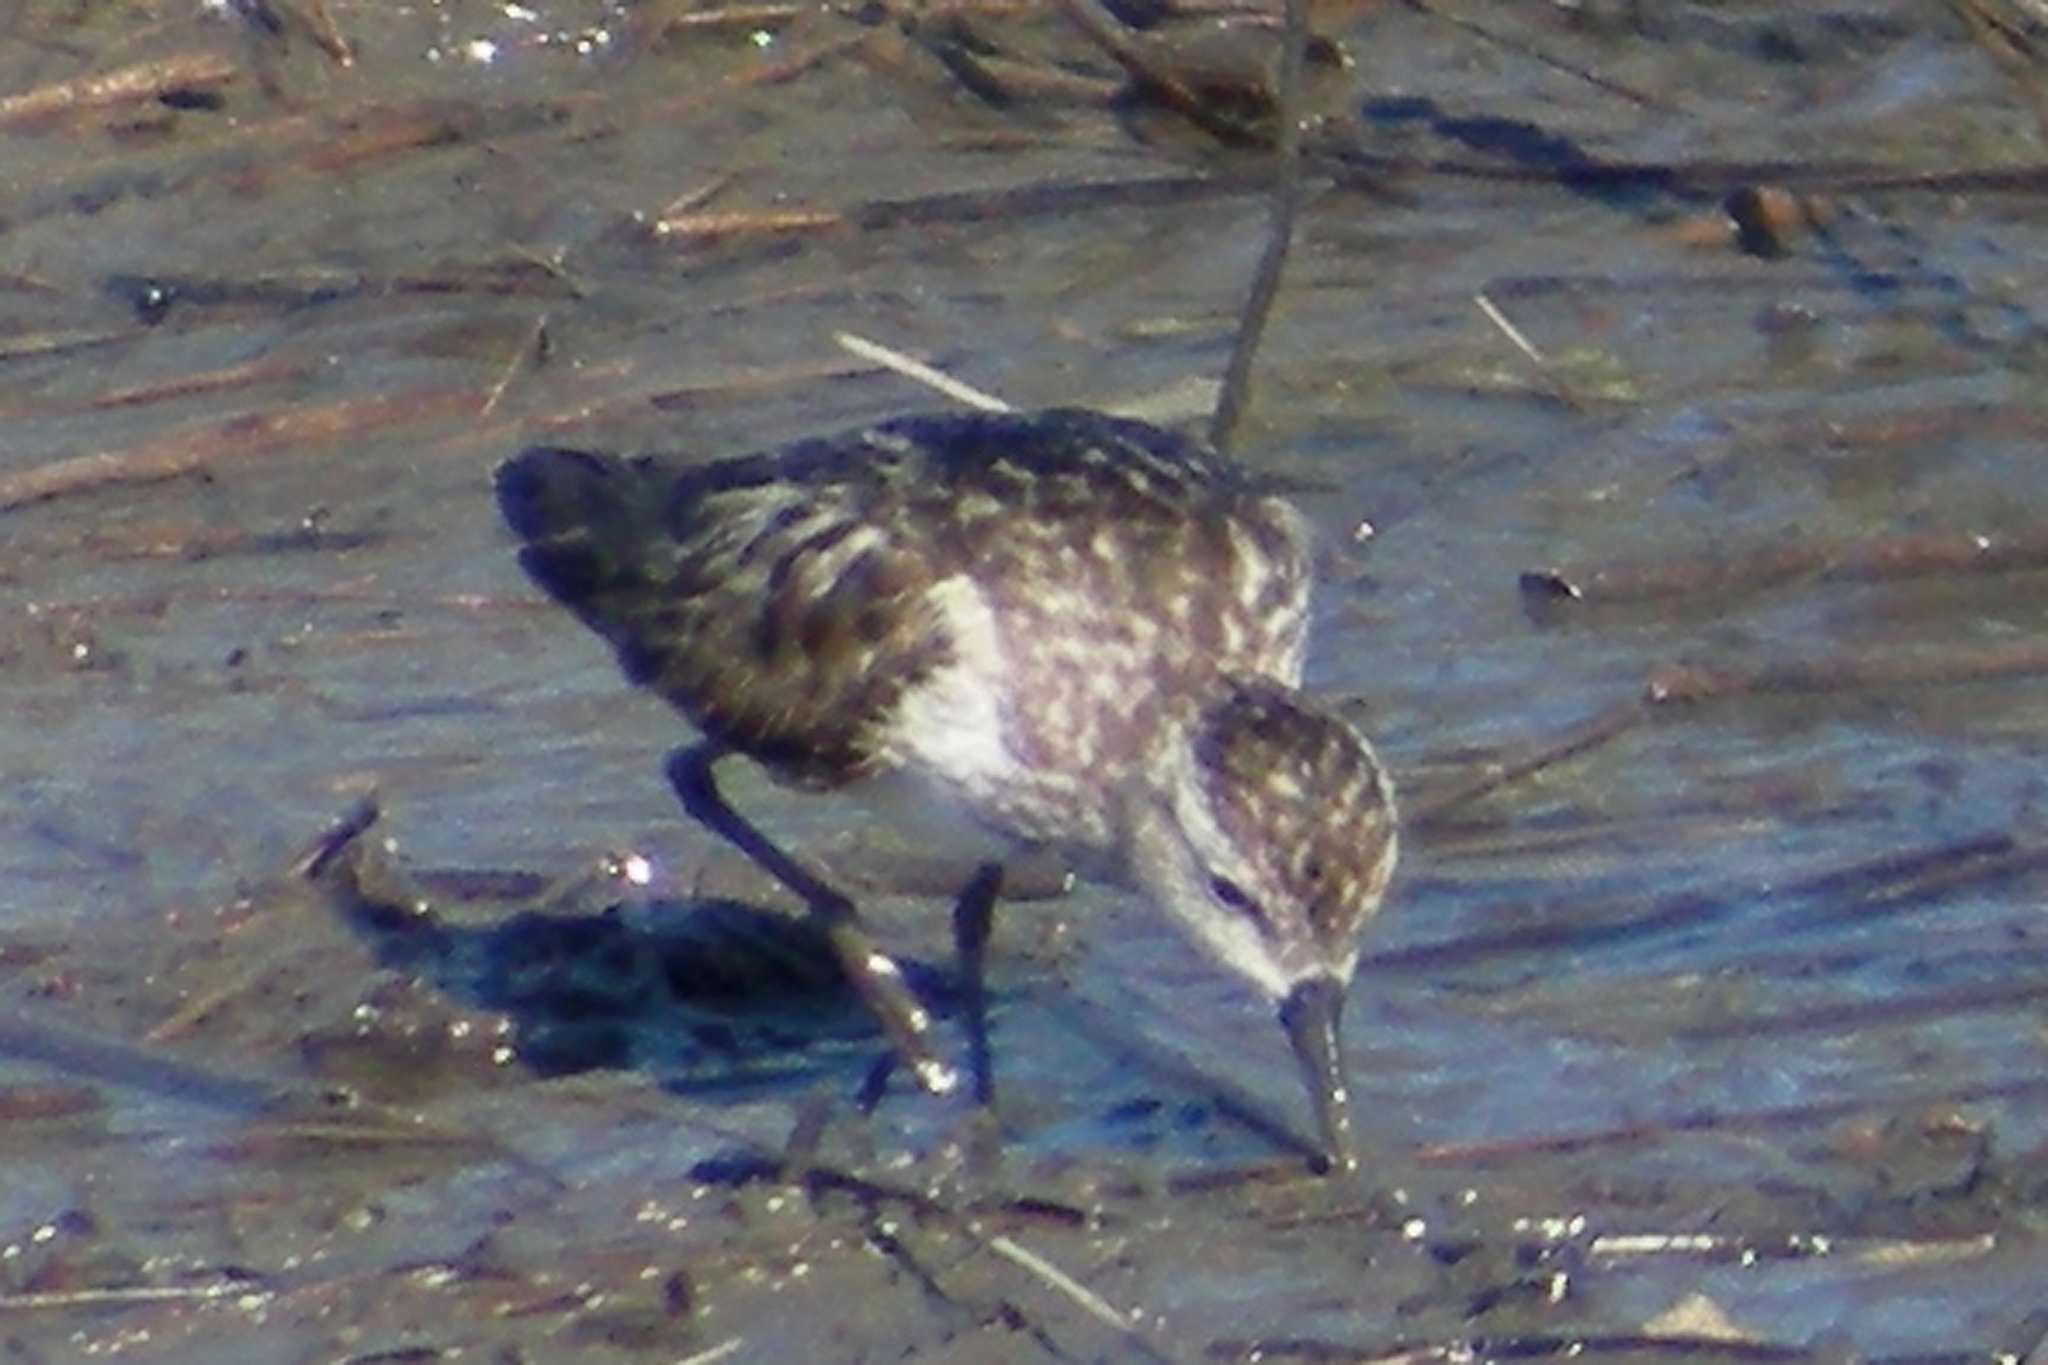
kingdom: Animalia
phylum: Chordata
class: Aves
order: Charadriiformes
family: Scolopacidae
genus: Calidris
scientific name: Calidris pusilla
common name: Semipalmated sandpiper
